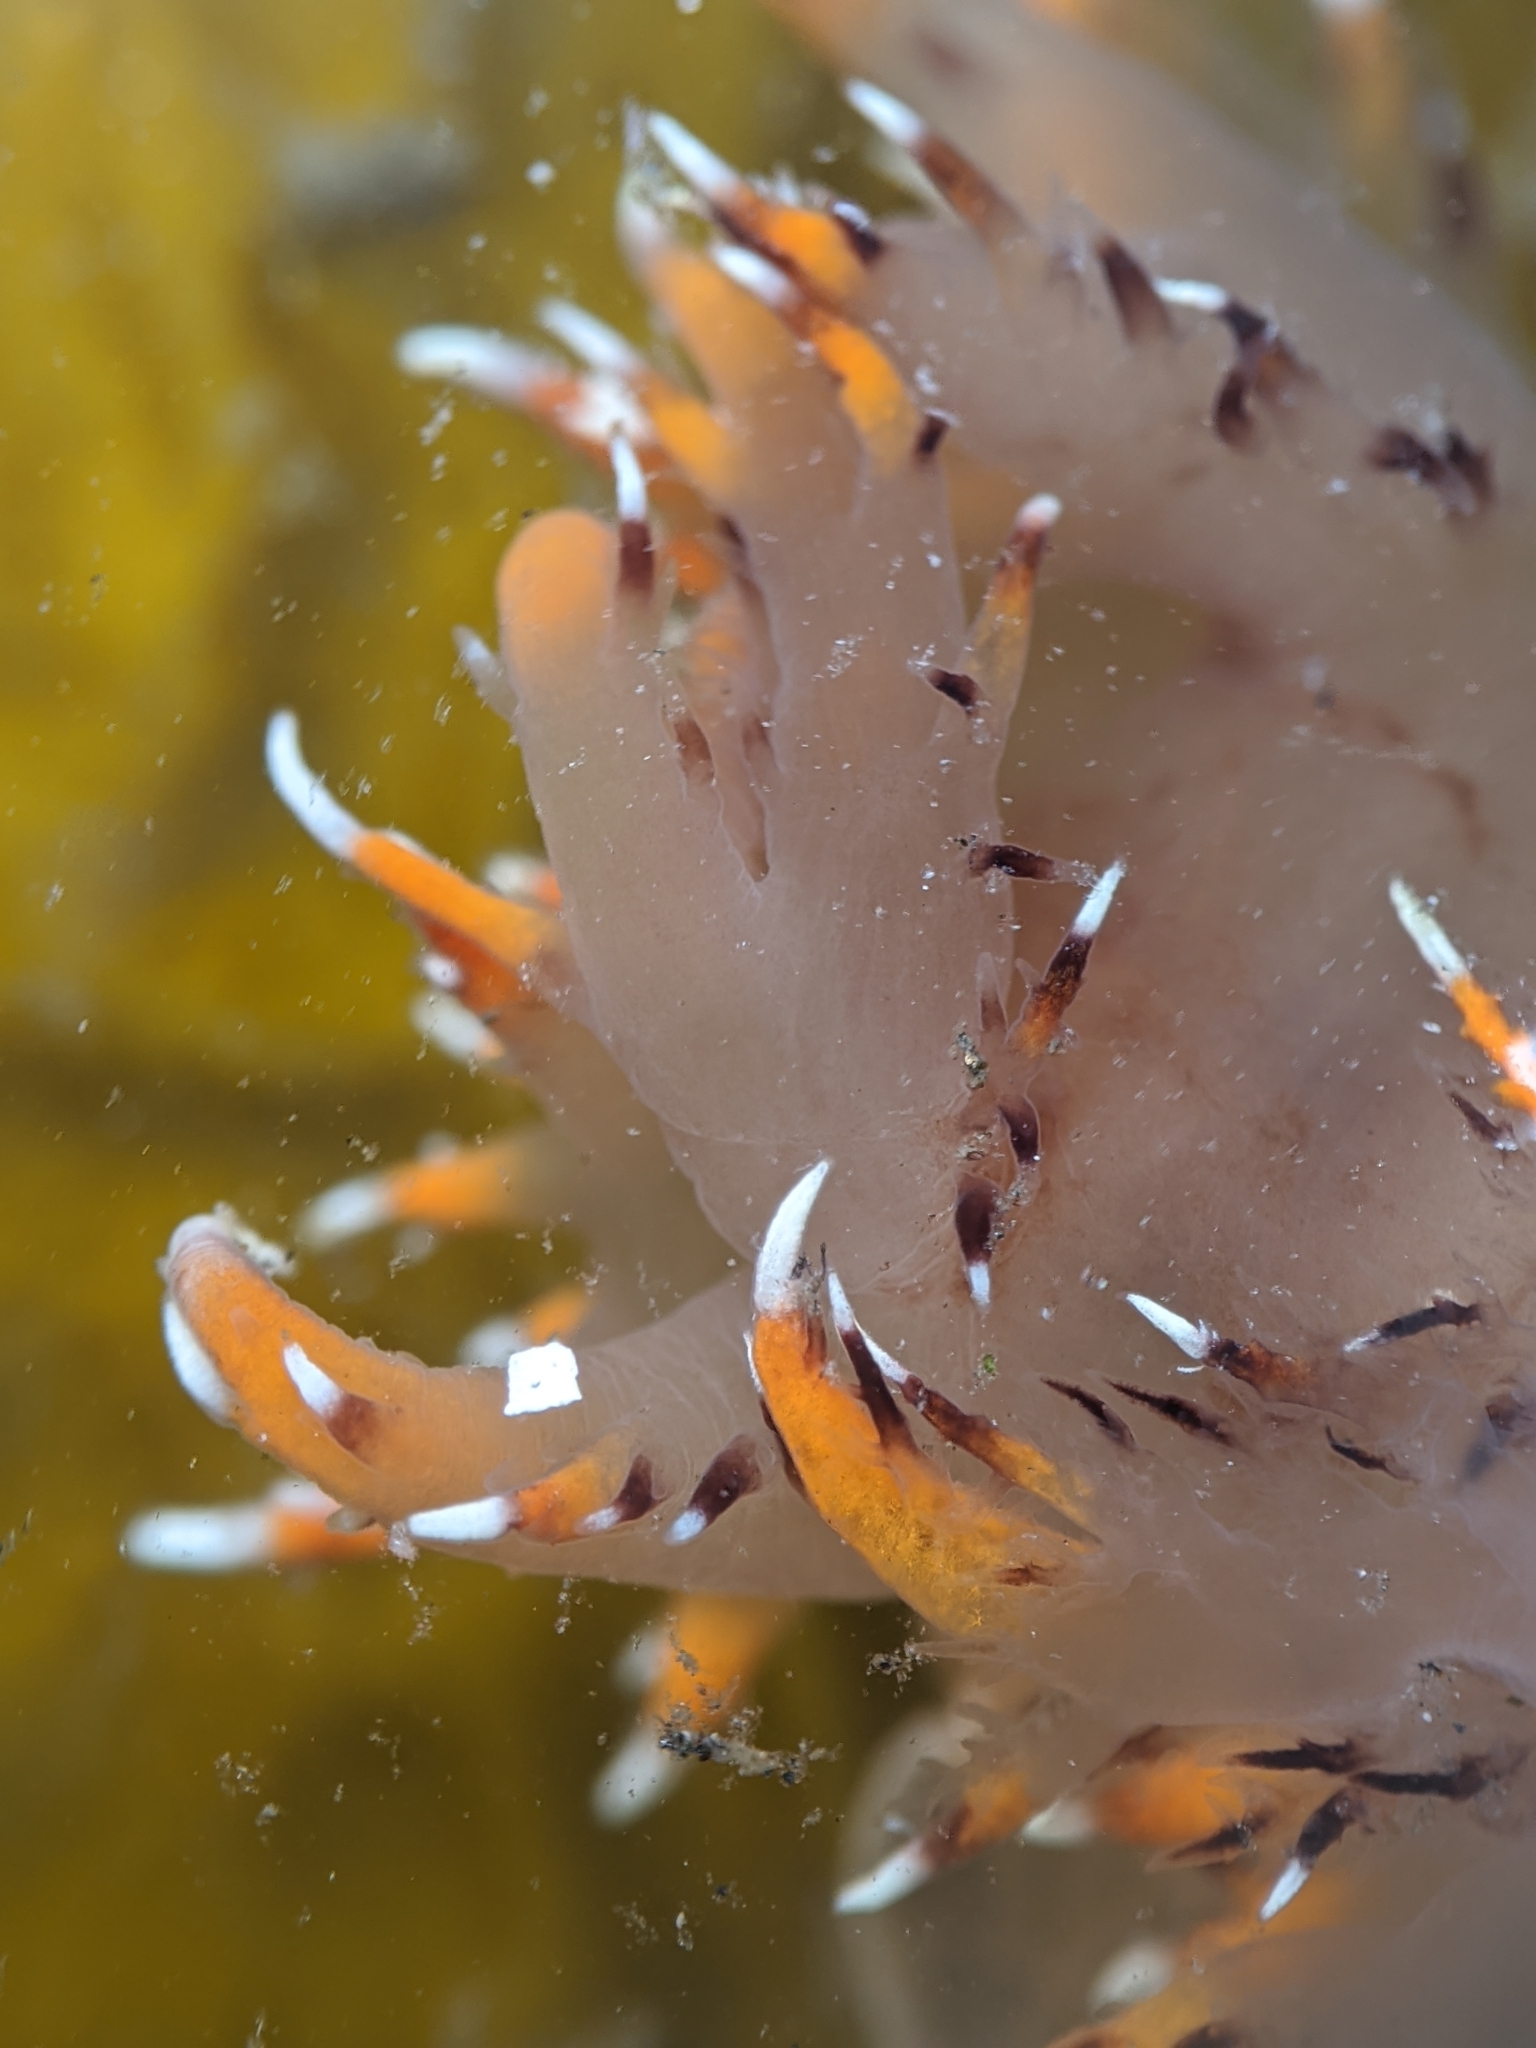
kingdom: Animalia
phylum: Mollusca
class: Gastropoda
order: Nudibranchia
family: Dendronotidae
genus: Dendronotus
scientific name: Dendronotus iris
